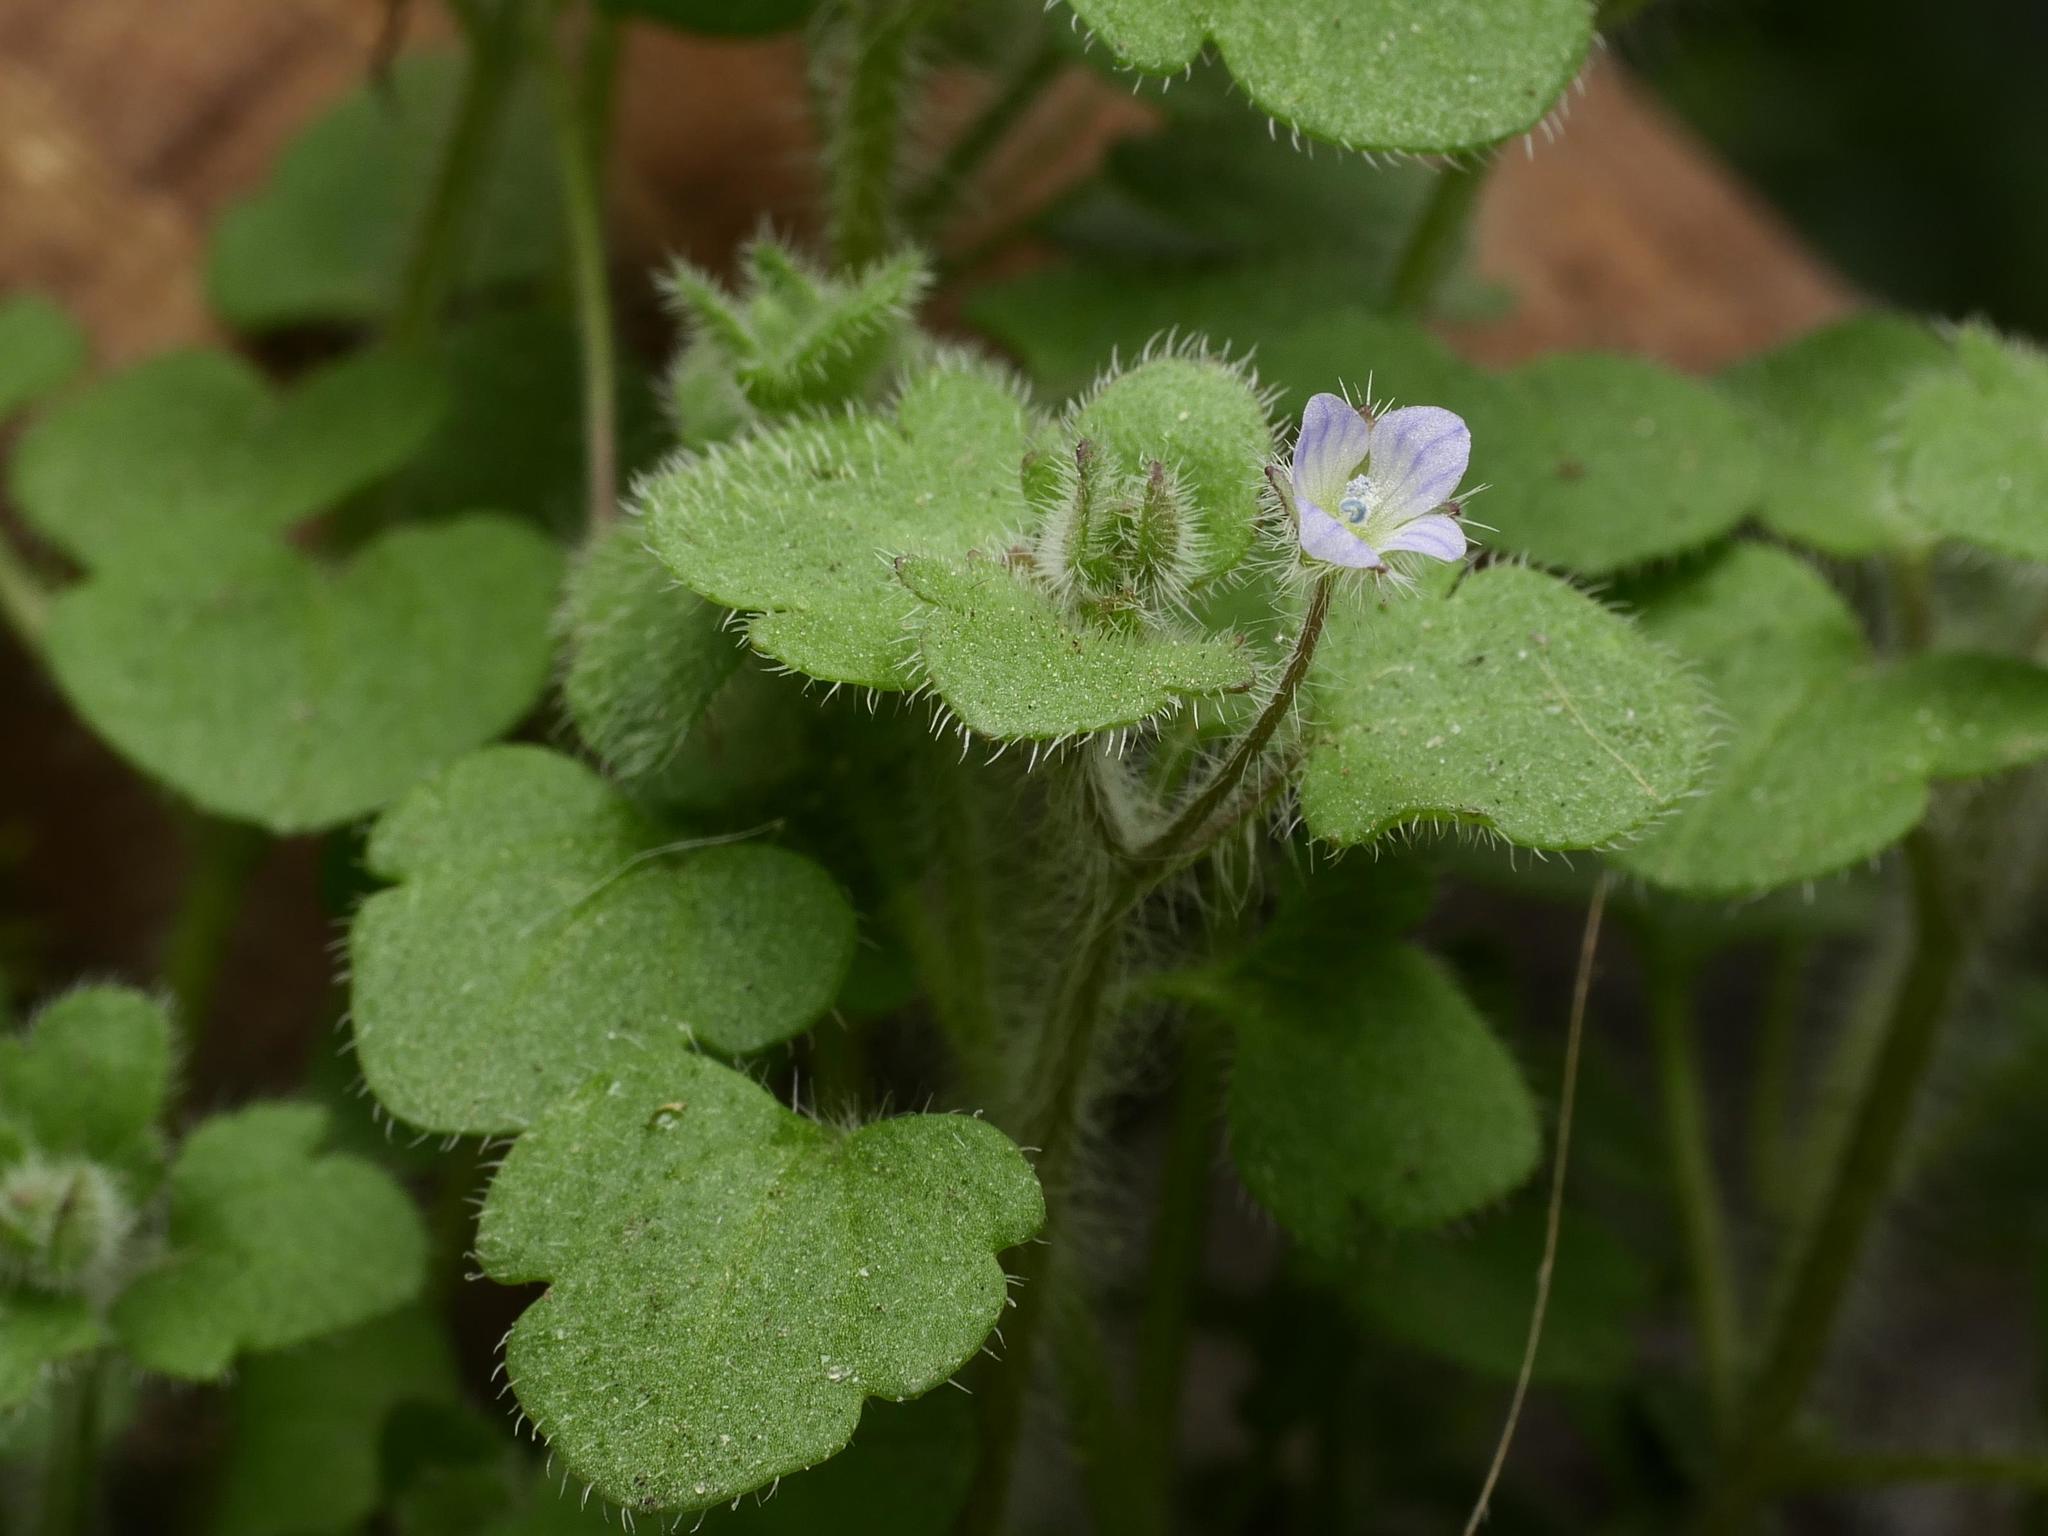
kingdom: Plantae
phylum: Tracheophyta
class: Magnoliopsida
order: Lamiales
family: Plantaginaceae
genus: Veronica
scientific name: Veronica sublobata
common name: False ivy-leaved speedwell
